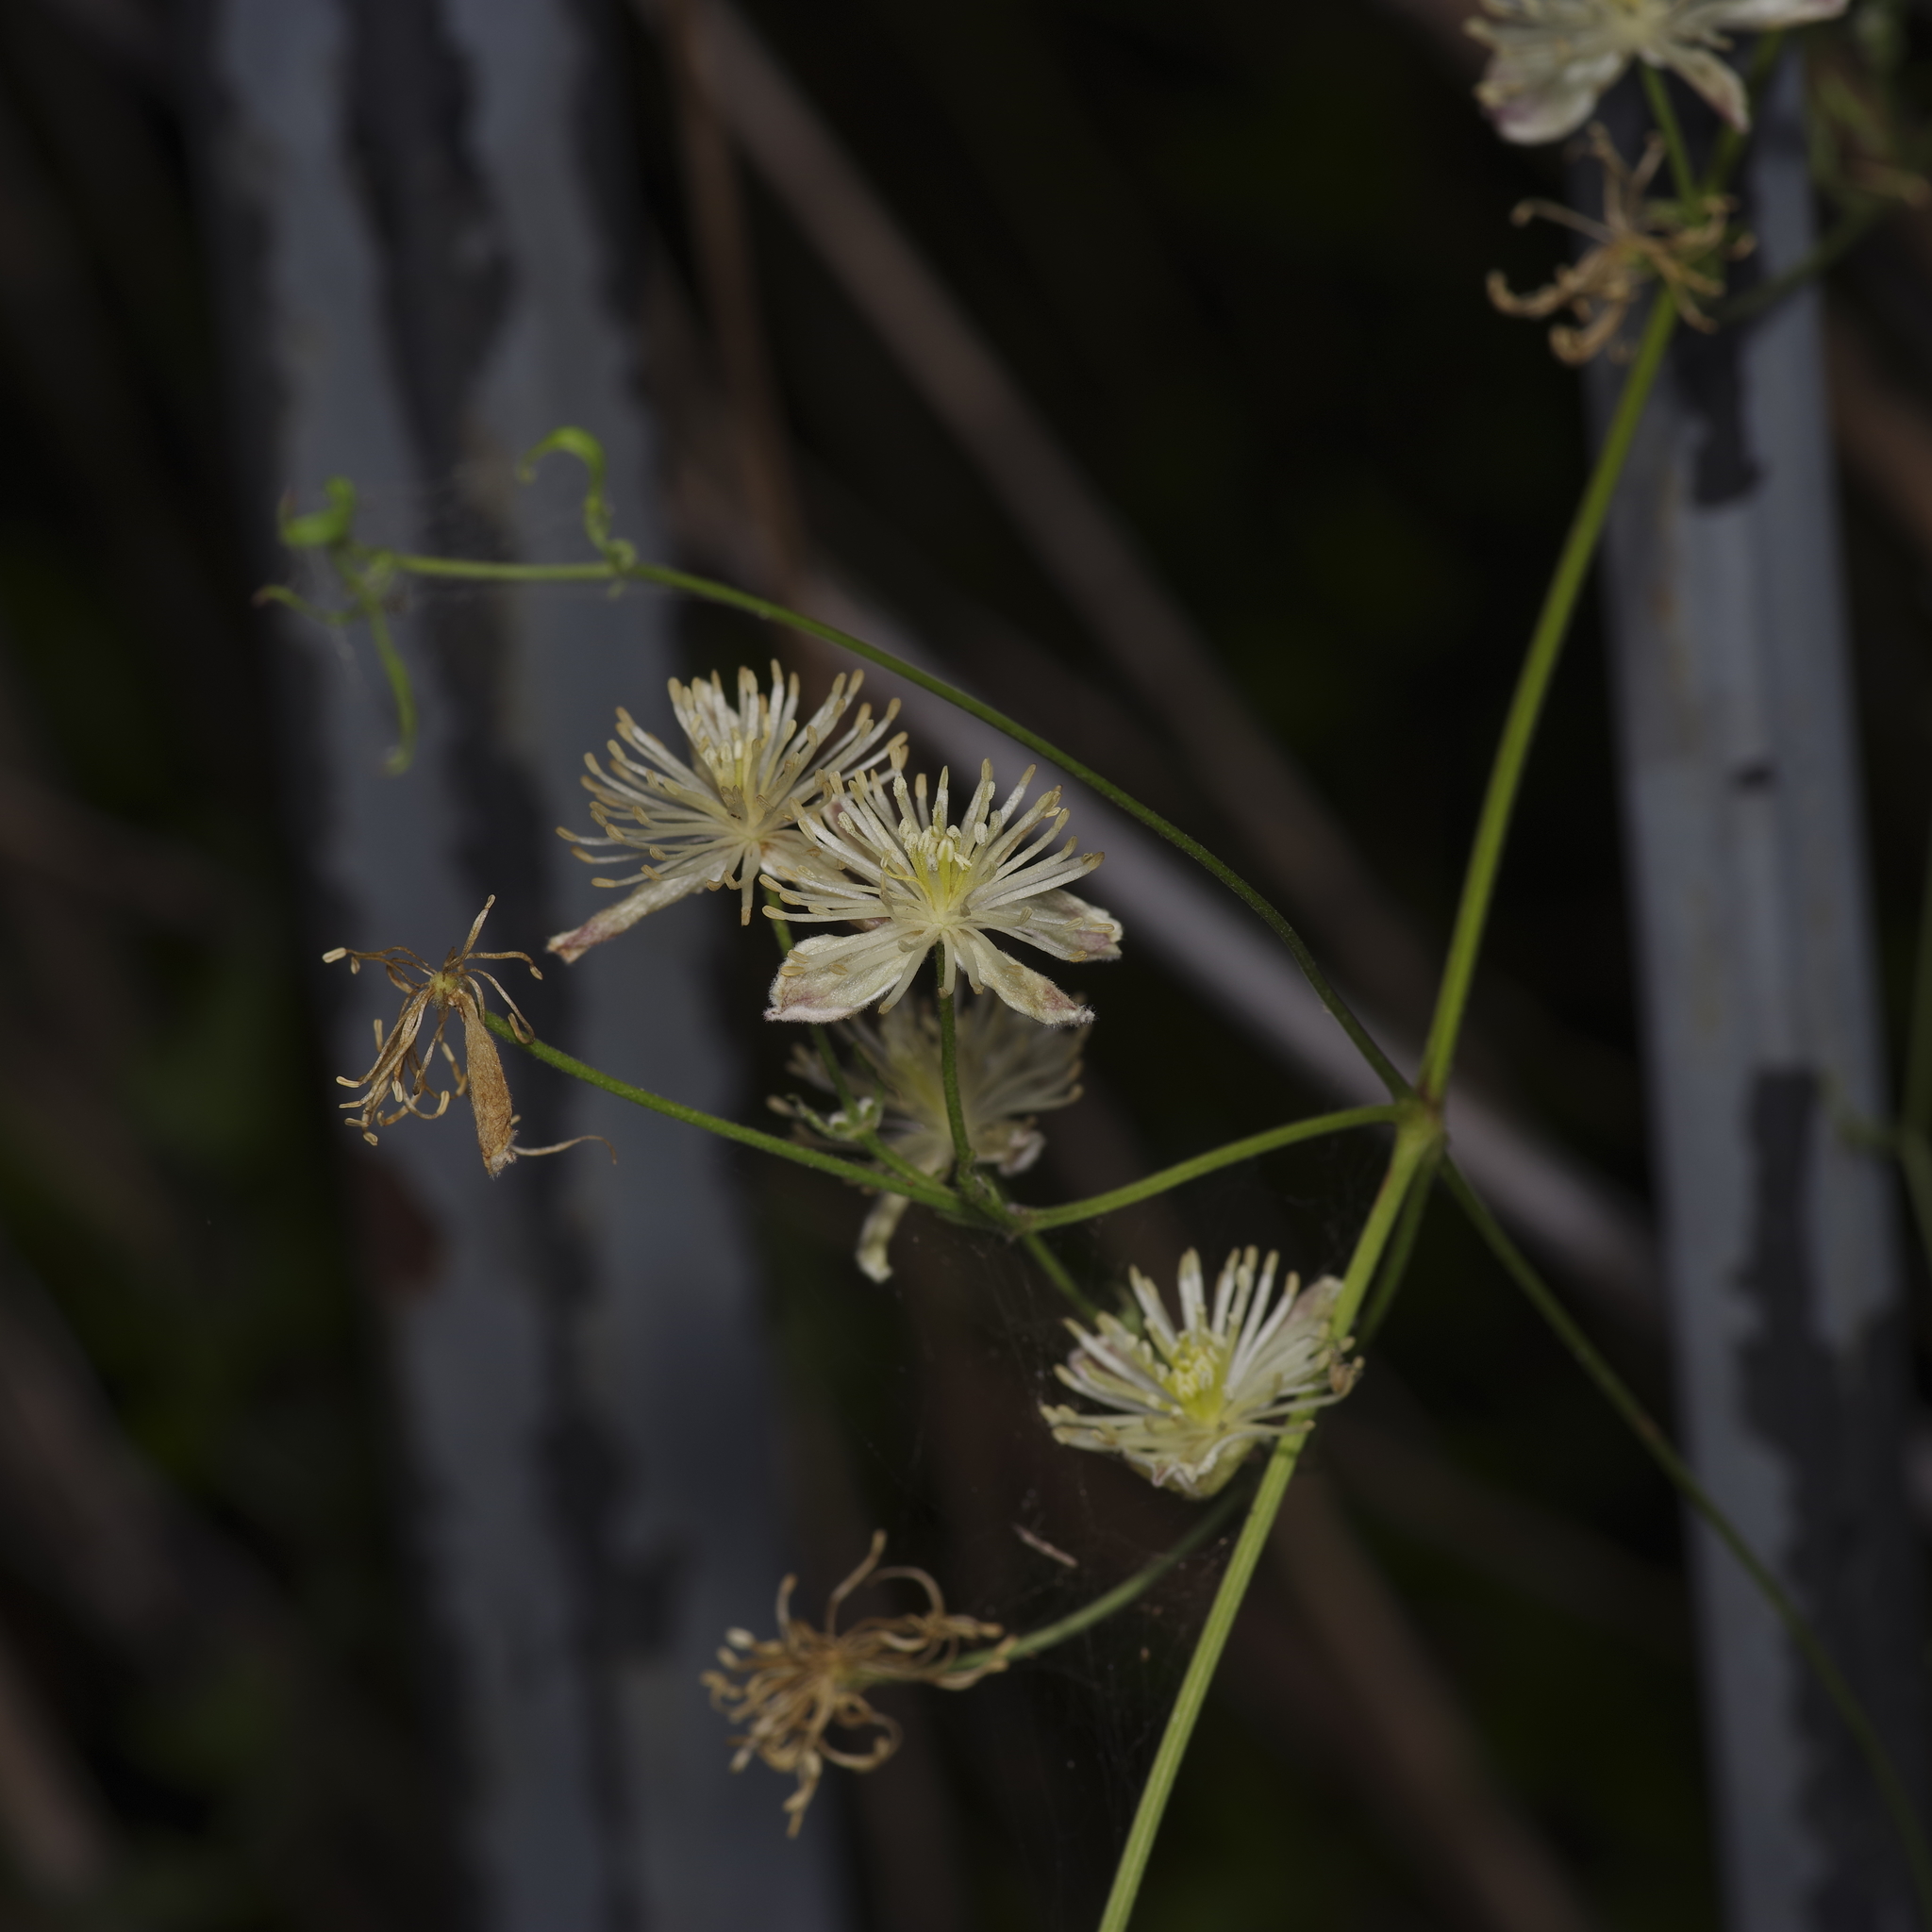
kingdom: Plantae
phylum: Tracheophyta
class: Magnoliopsida
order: Ranunculales
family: Ranunculaceae
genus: Clematis
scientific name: Clematis drummondii
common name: Texas virgin's bower
